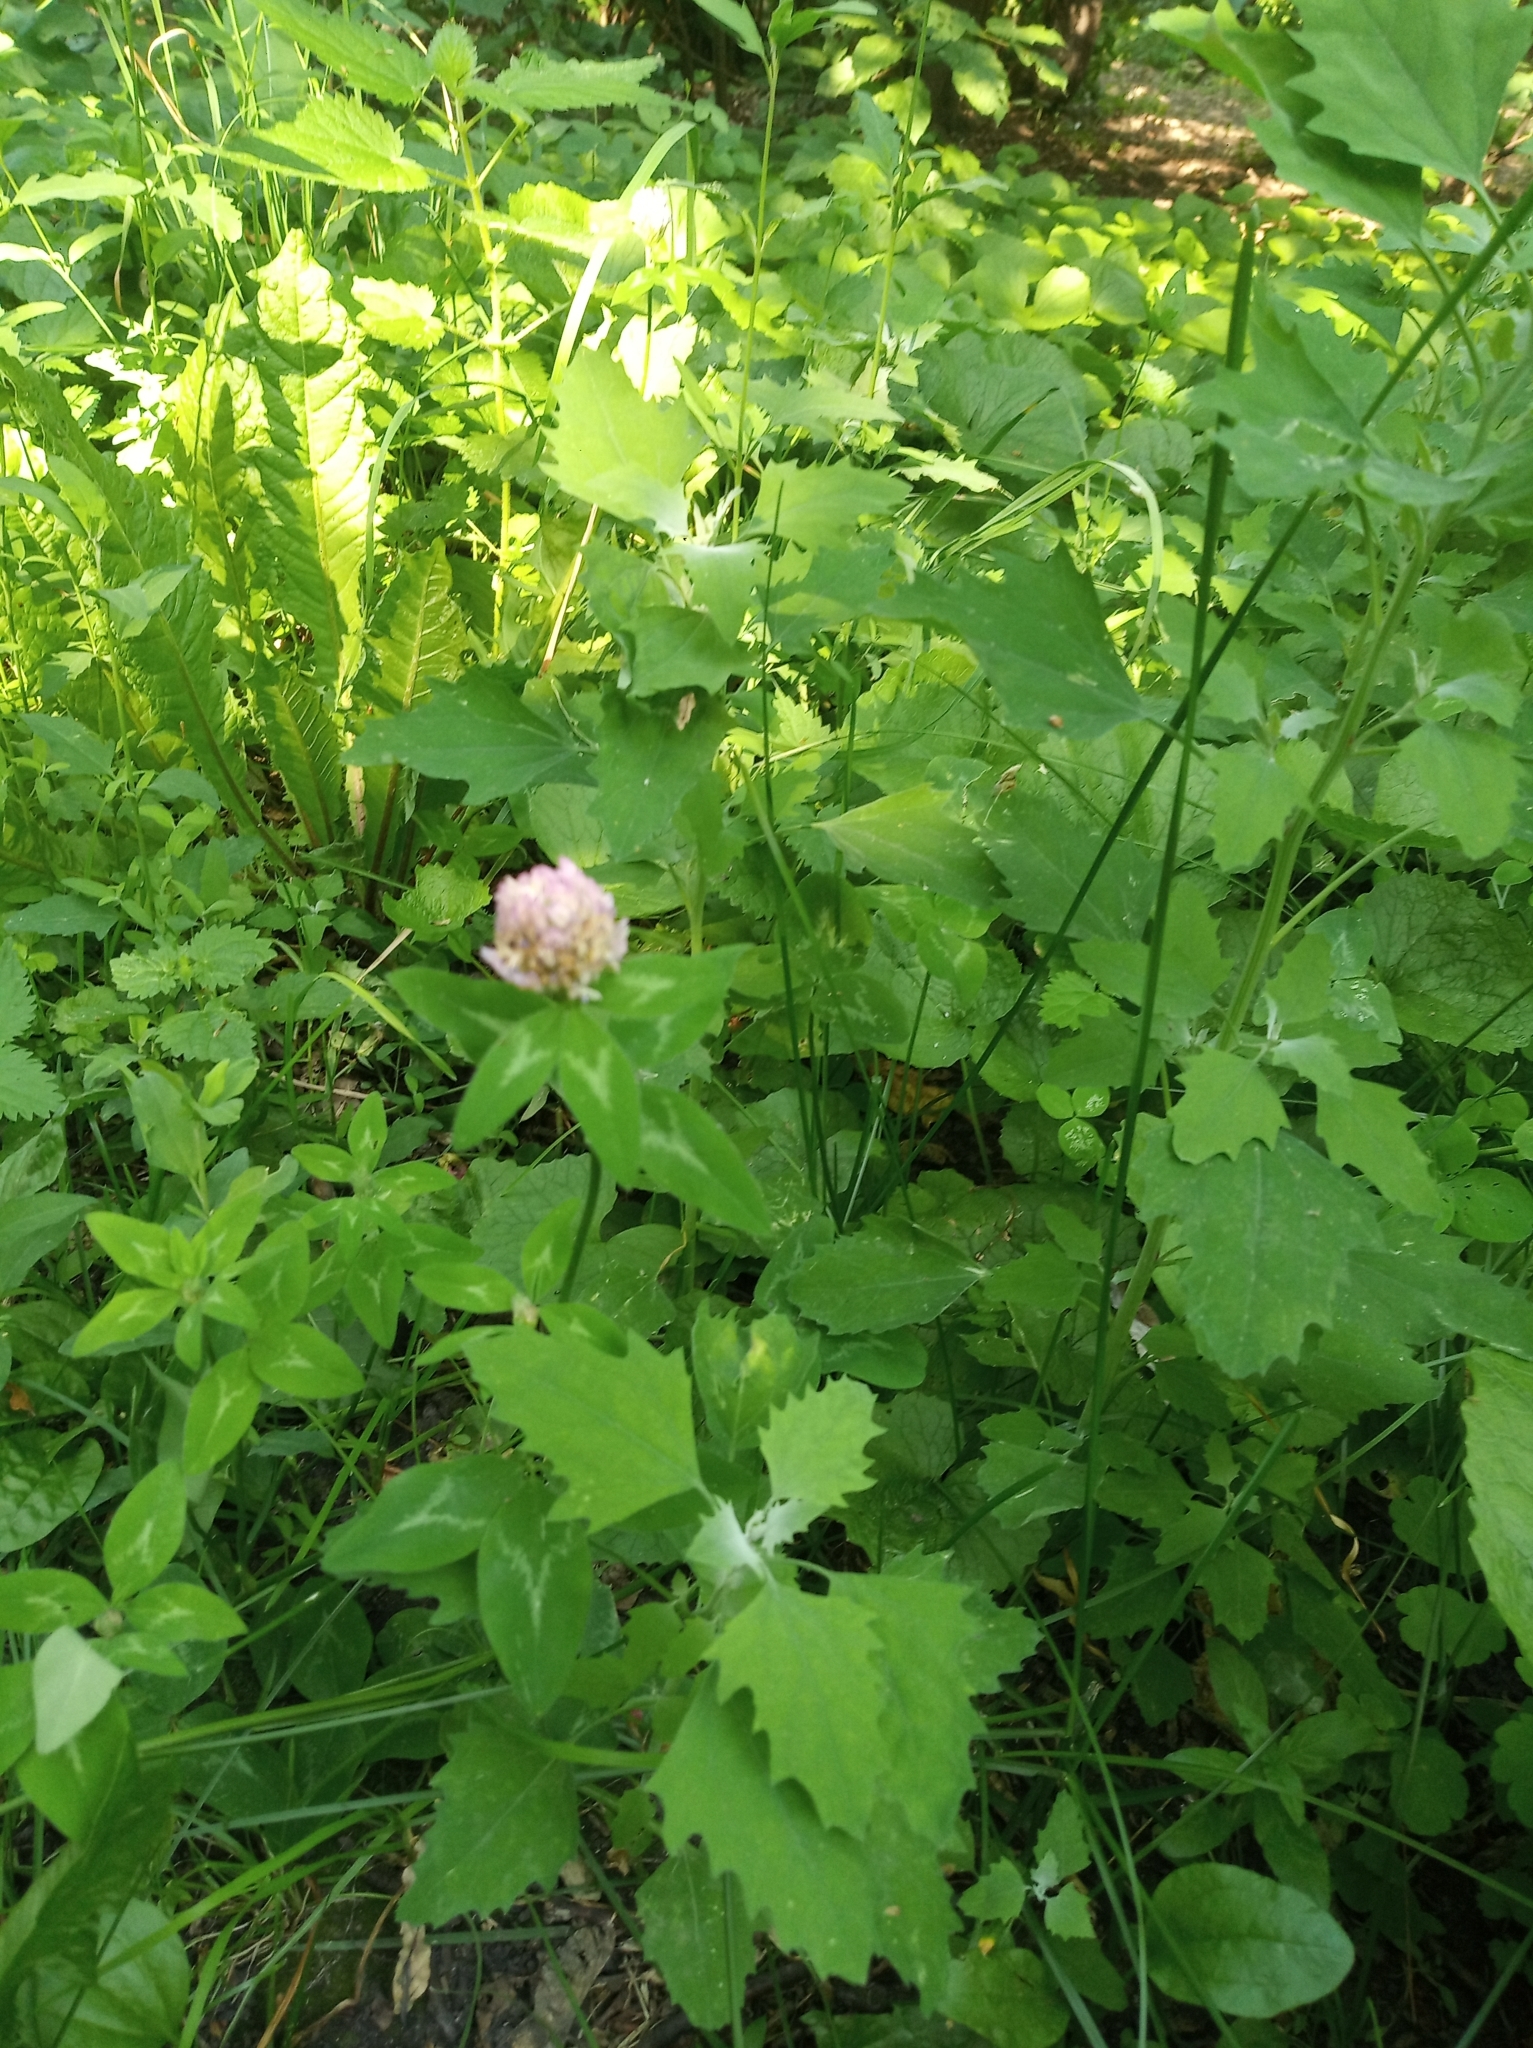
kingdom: Plantae
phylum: Tracheophyta
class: Magnoliopsida
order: Fabales
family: Fabaceae
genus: Trifolium
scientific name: Trifolium pratense
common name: Red clover
